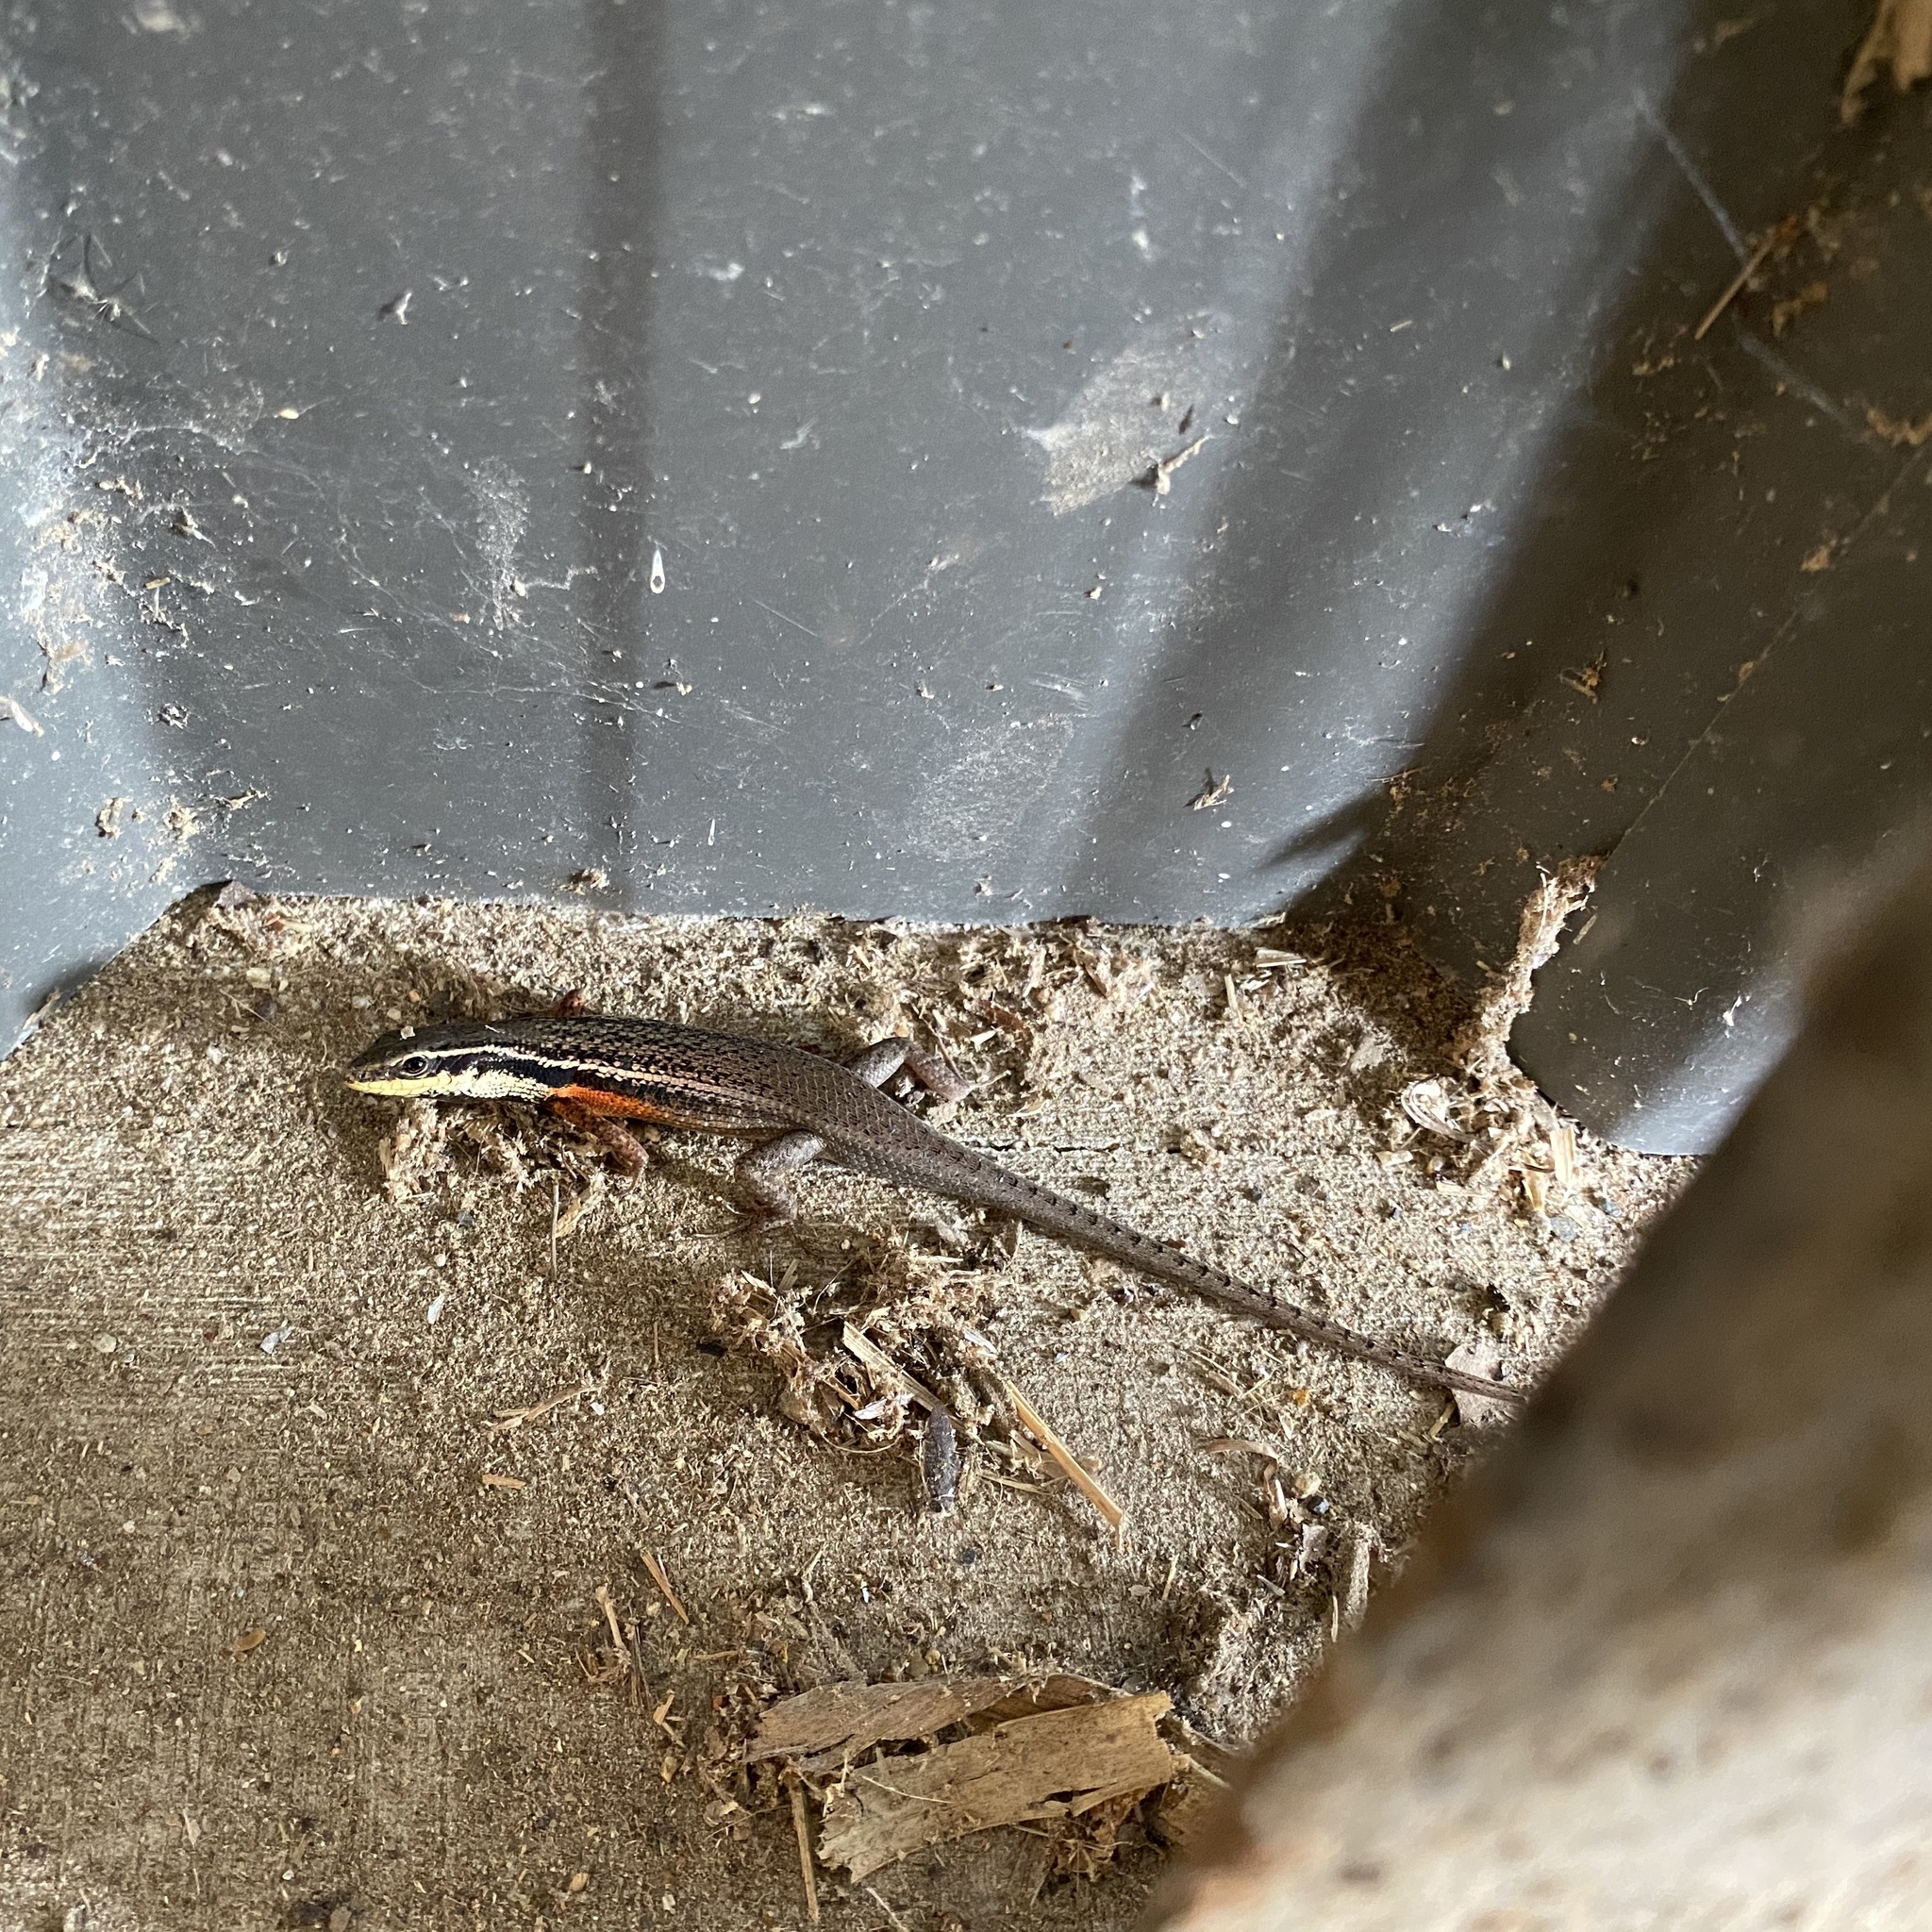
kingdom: Animalia
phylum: Chordata
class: Squamata
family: Scincidae
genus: Carlia
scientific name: Carlia rostralis
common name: Black-throated rainbow-skink
